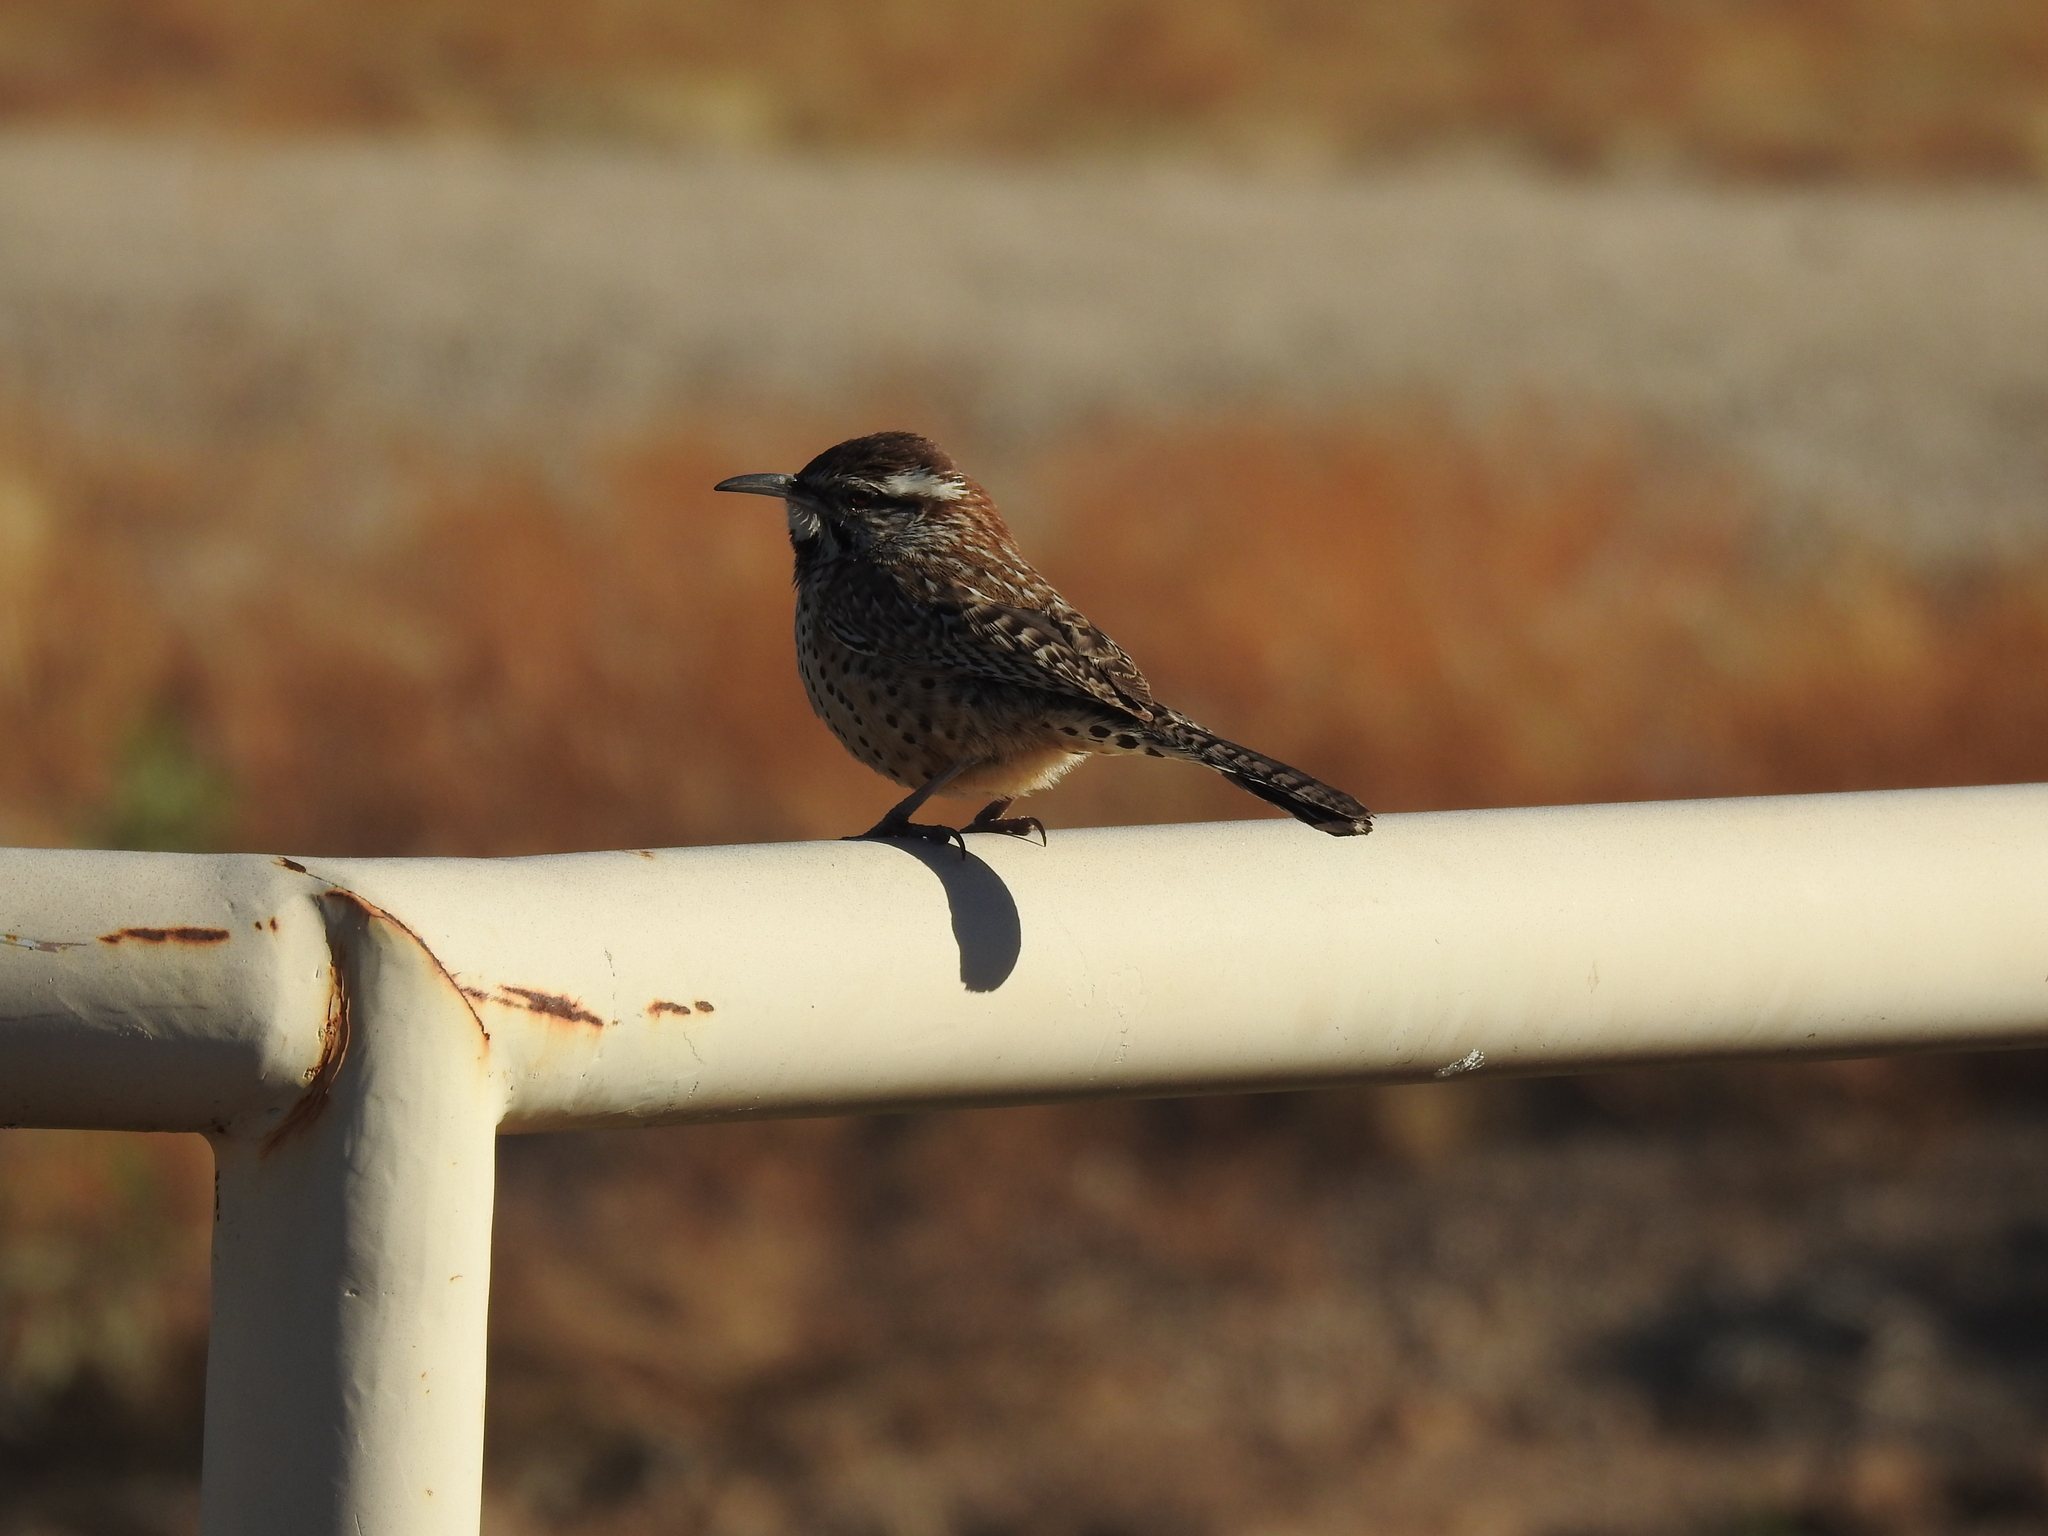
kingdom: Animalia
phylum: Chordata
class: Aves
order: Passeriformes
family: Troglodytidae
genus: Campylorhynchus
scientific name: Campylorhynchus brunneicapillus
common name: Cactus wren
